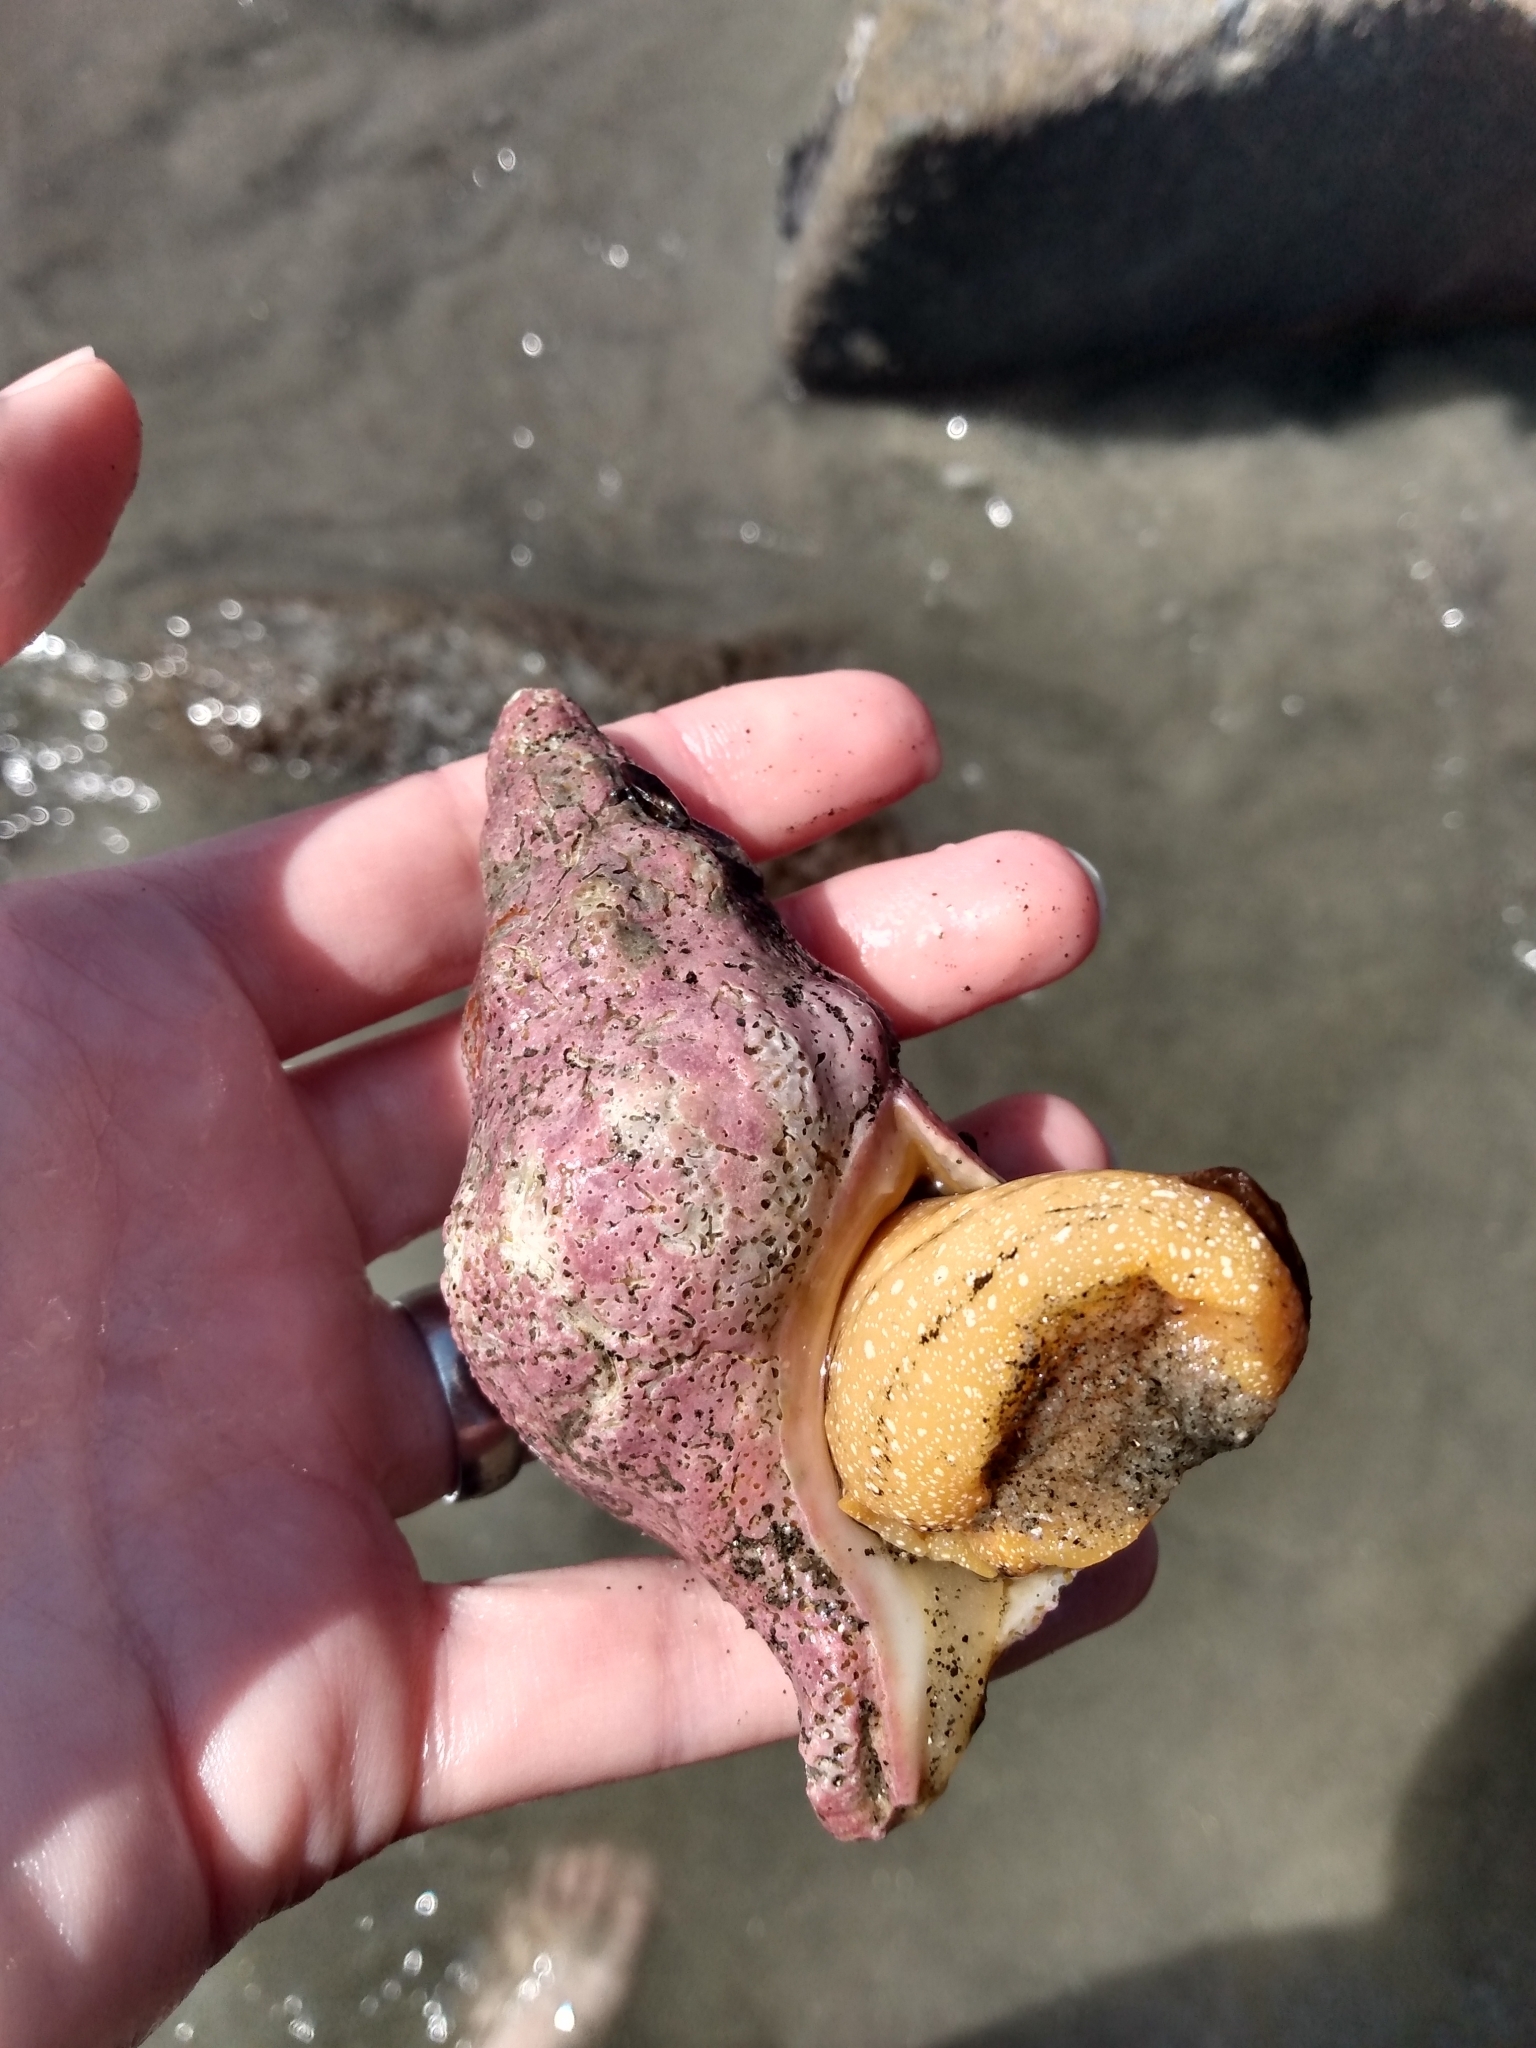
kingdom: Animalia
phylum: Mollusca
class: Gastropoda
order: Neogastropoda
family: Austrosiphonidae
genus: Kelletia
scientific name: Kelletia kelletii
